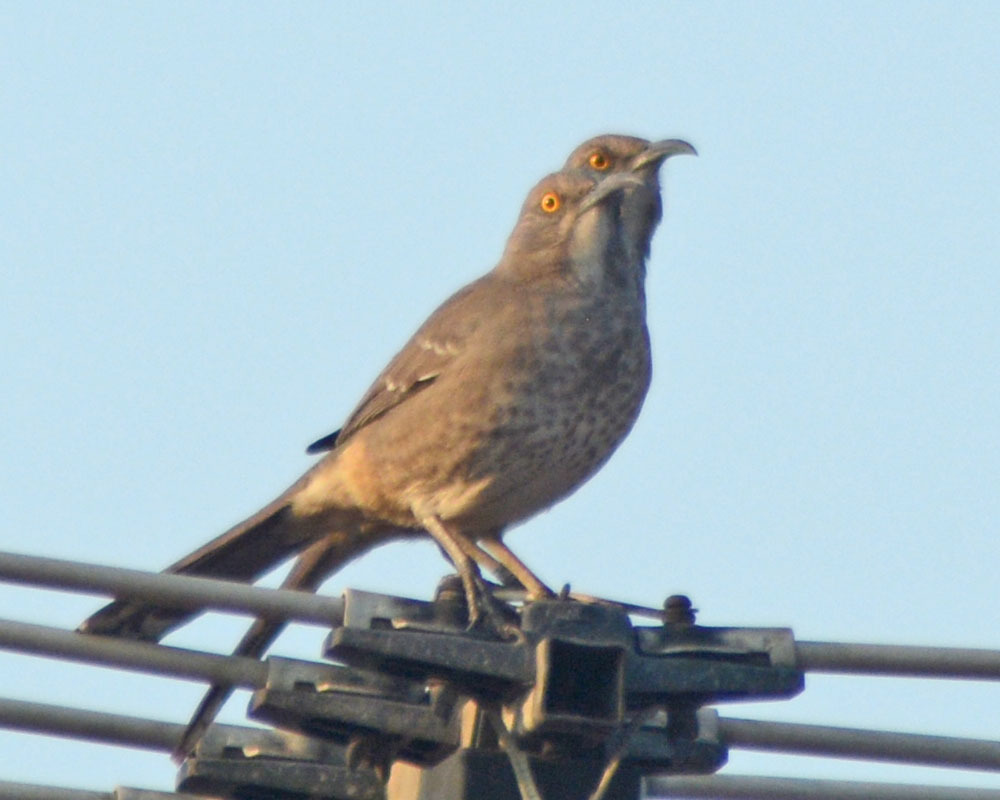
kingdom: Animalia
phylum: Chordata
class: Aves
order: Passeriformes
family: Mimidae
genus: Toxostoma
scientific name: Toxostoma curvirostre
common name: Curve-billed thrasher
